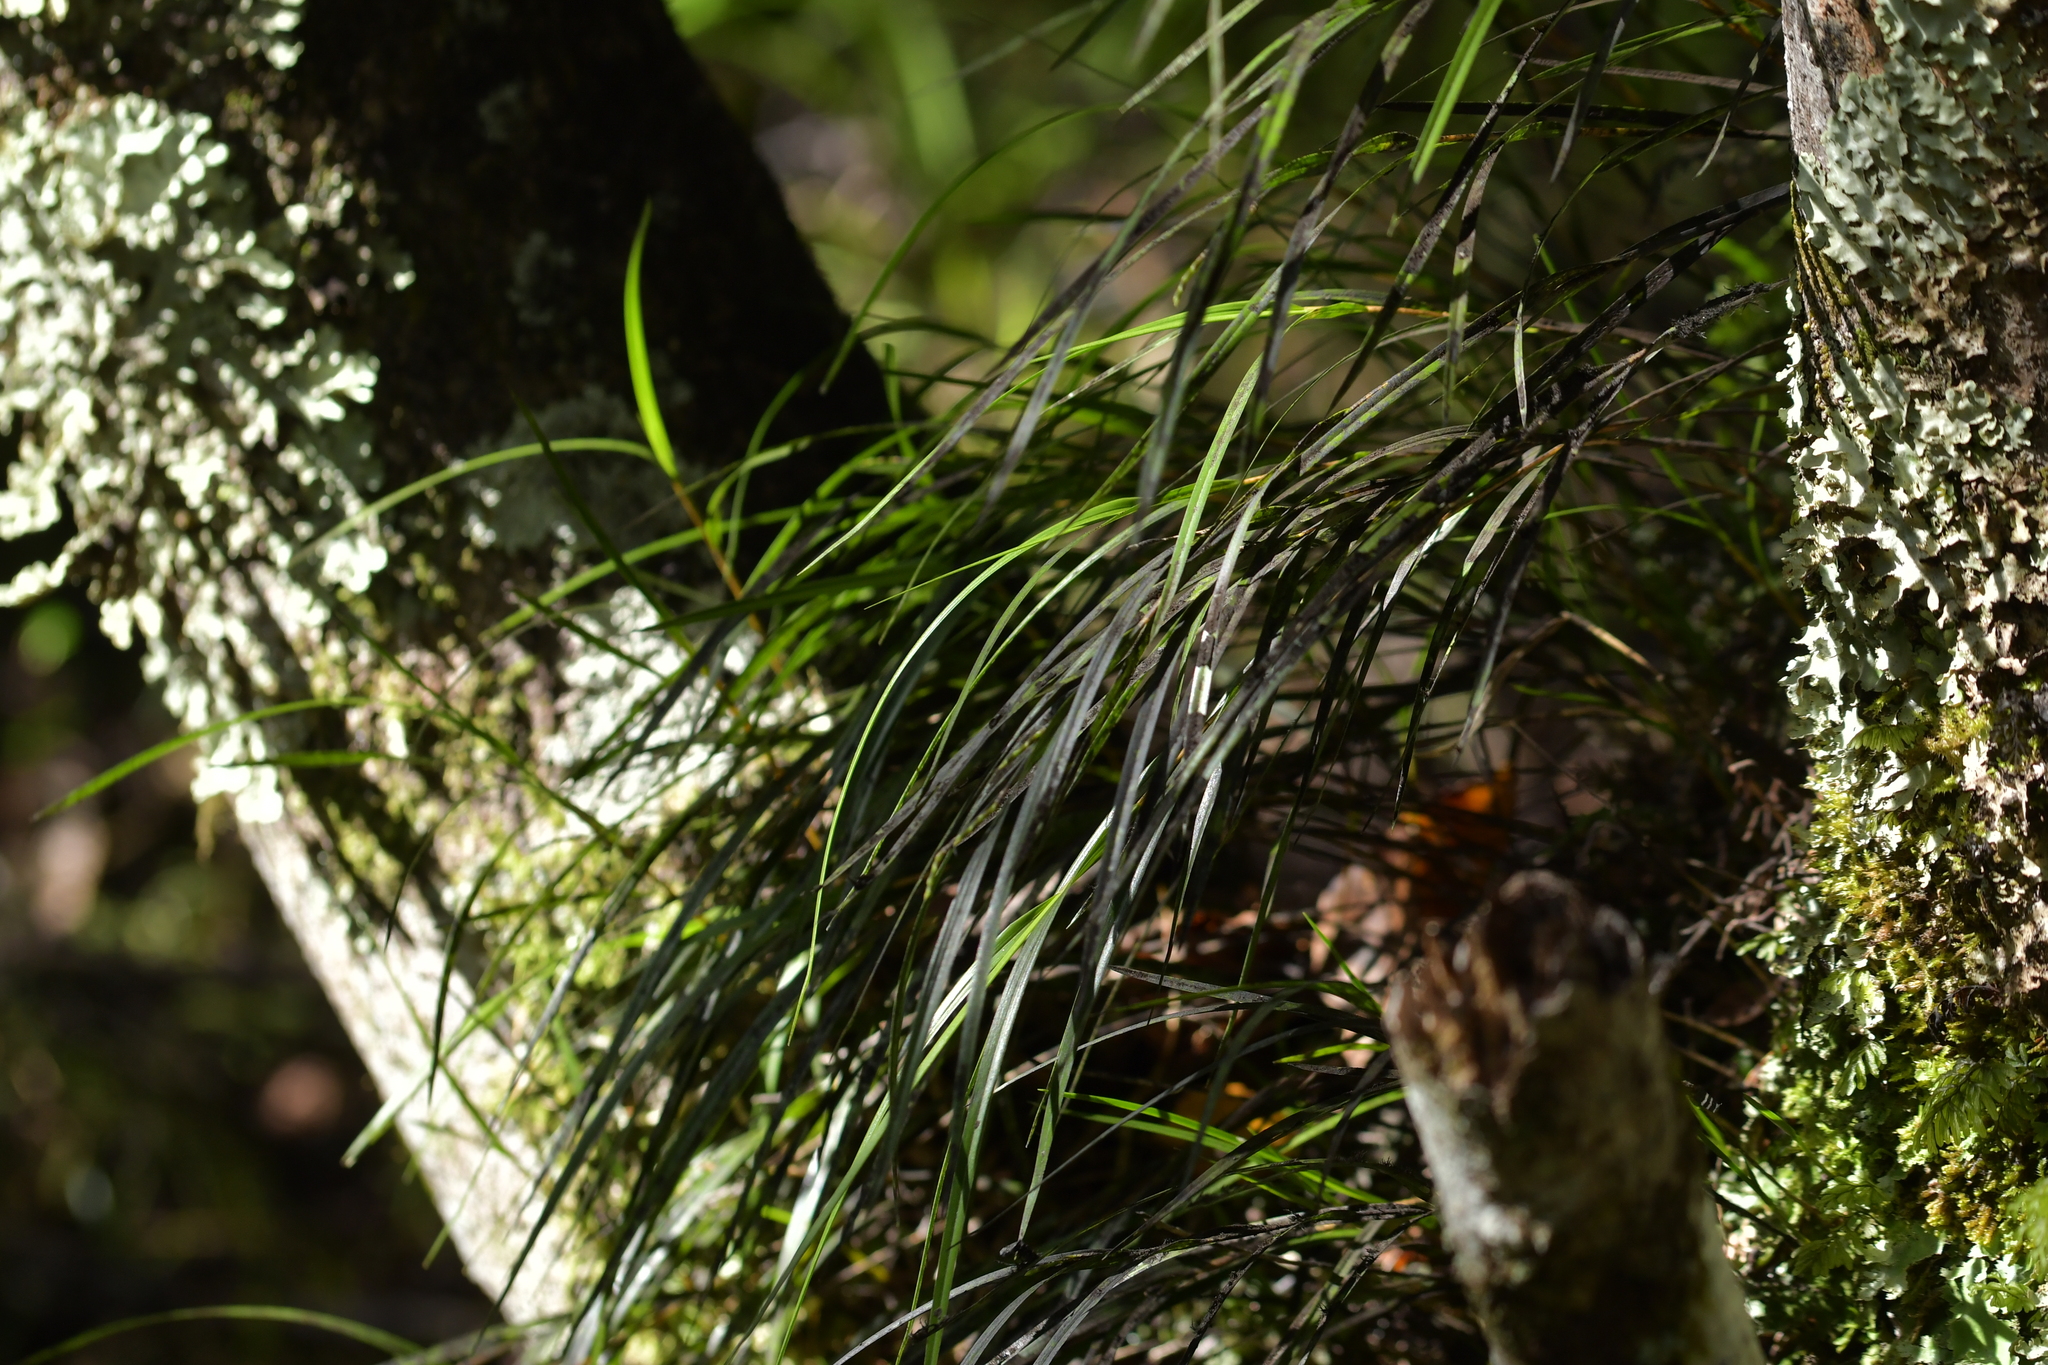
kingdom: Plantae
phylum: Tracheophyta
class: Liliopsida
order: Asparagales
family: Orchidaceae
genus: Earina
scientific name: Earina mucronata
